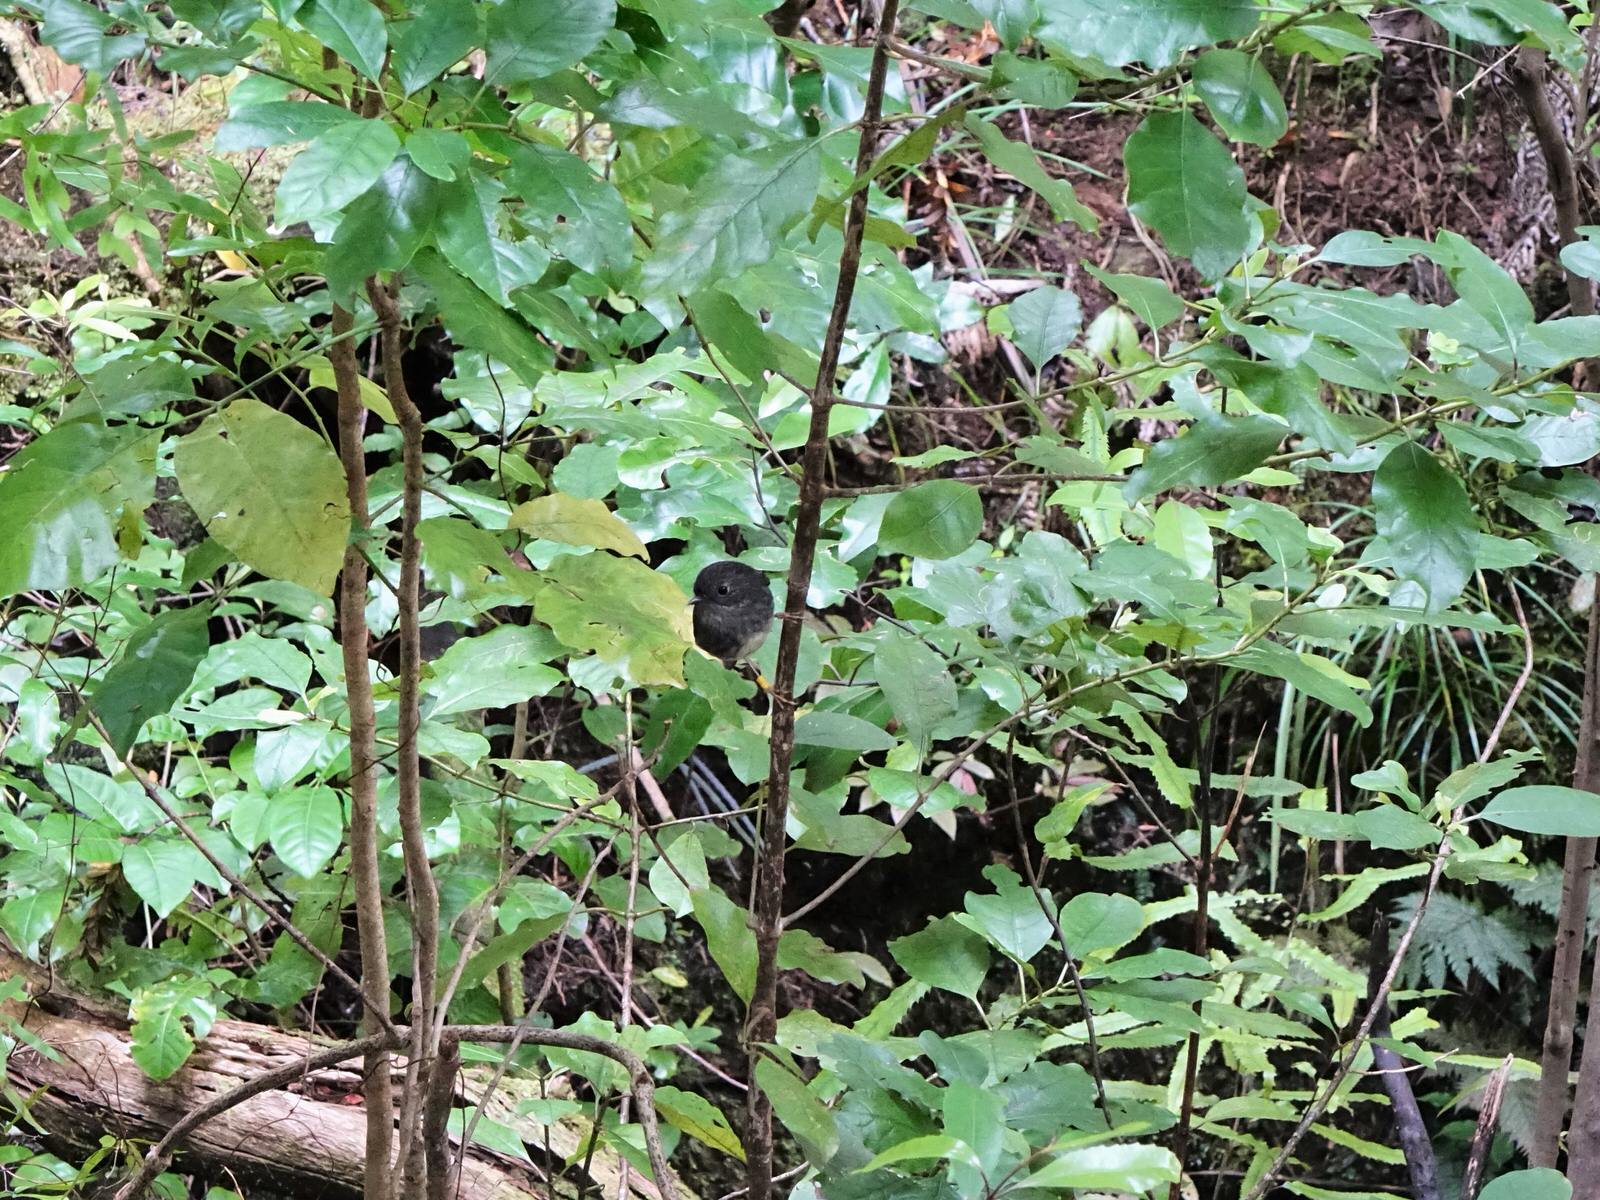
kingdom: Animalia
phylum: Chordata
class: Aves
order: Passeriformes
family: Petroicidae
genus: Petroica
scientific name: Petroica australis
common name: New zealand robin
